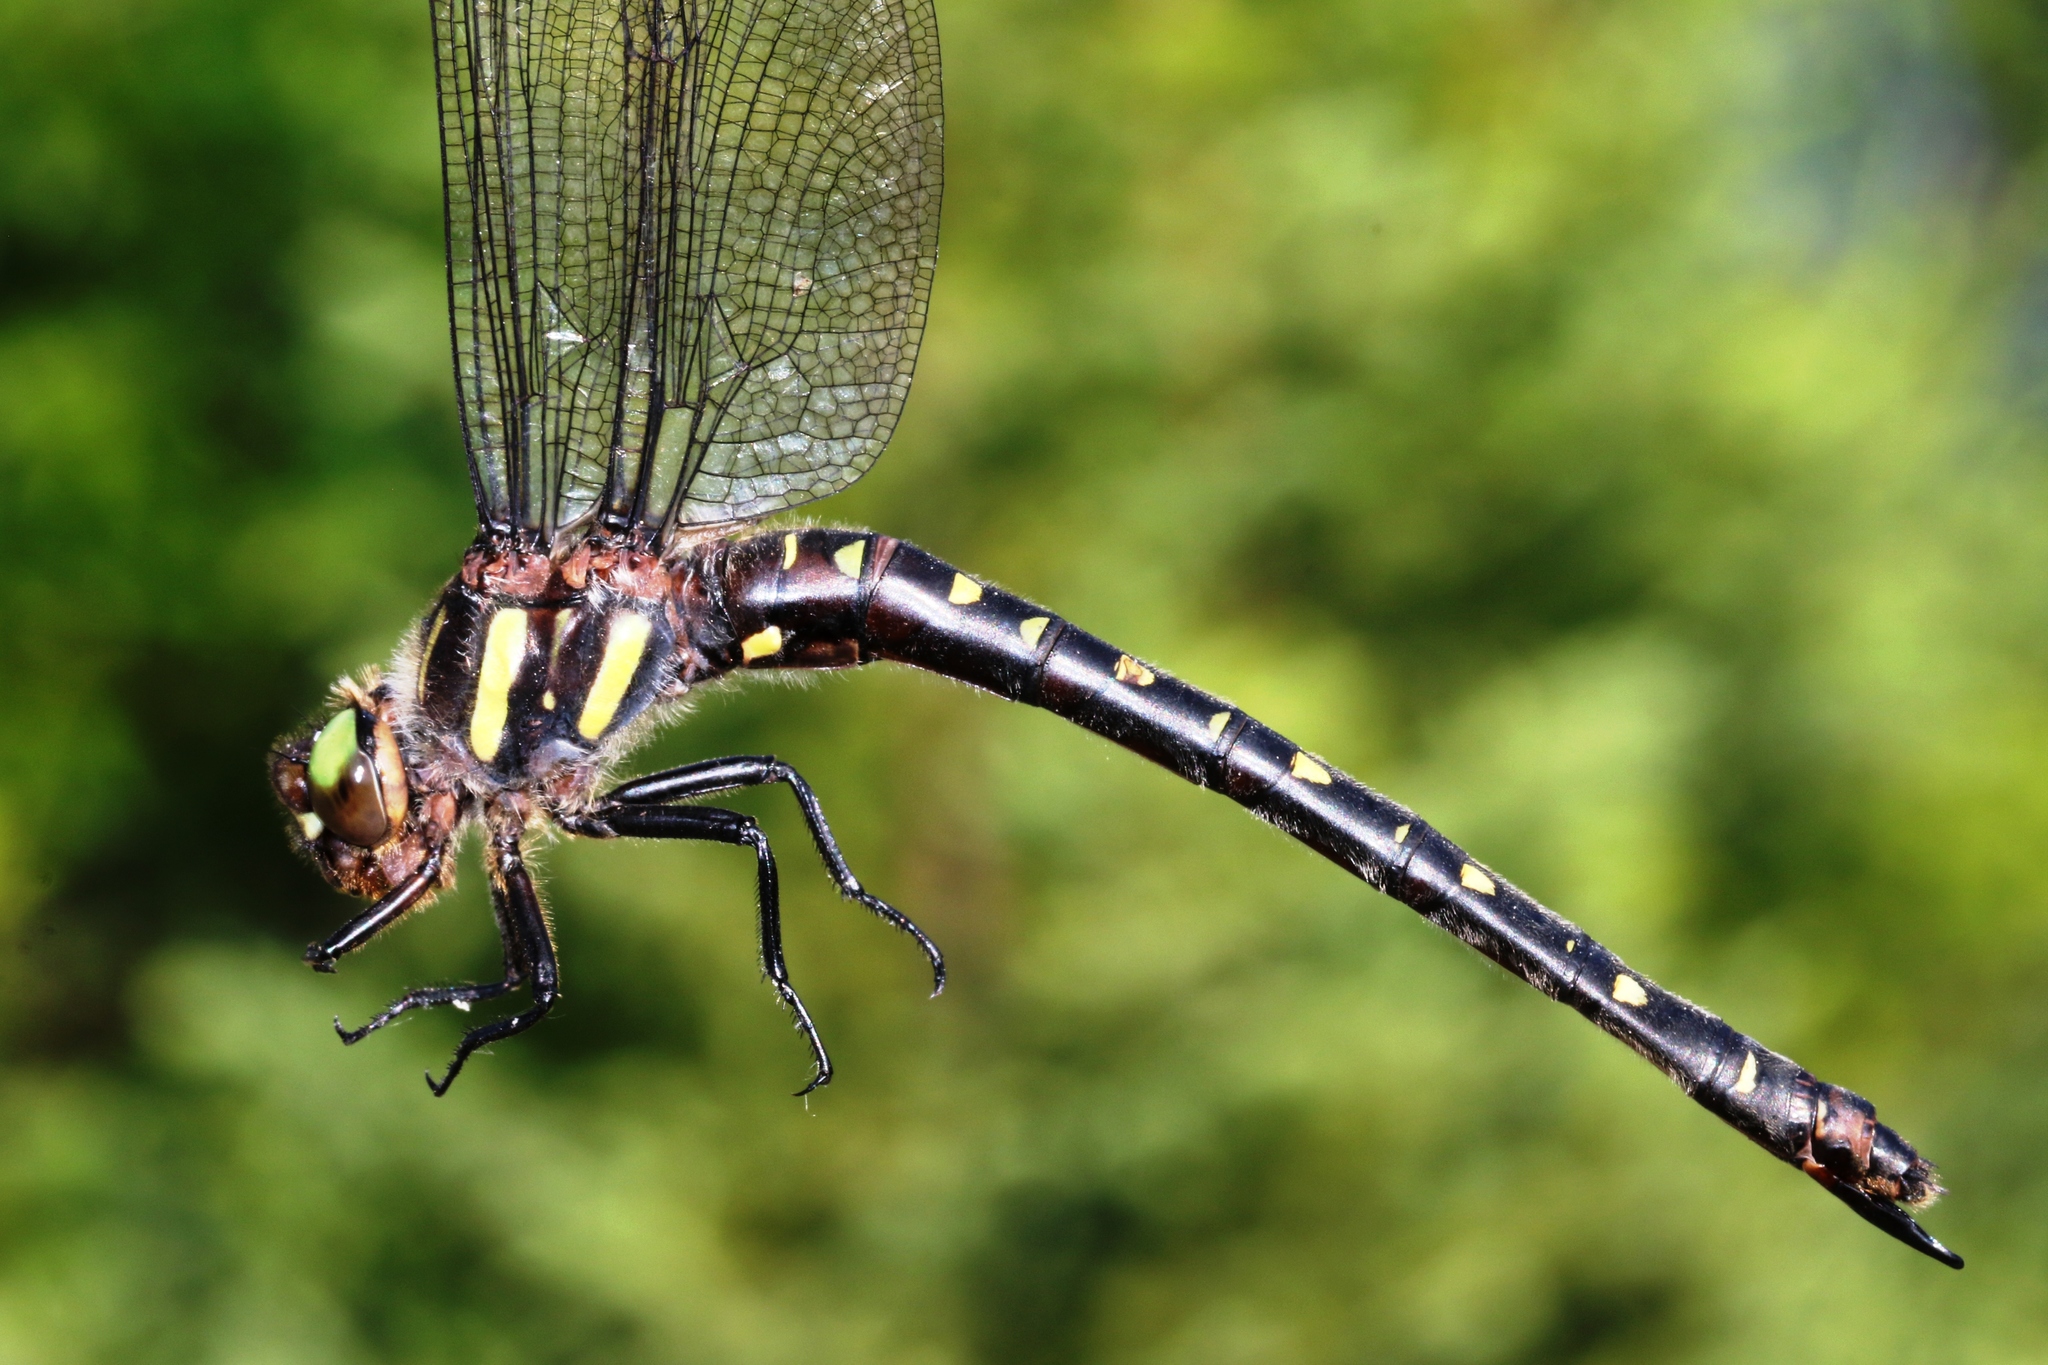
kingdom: Animalia
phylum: Arthropoda
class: Insecta
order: Odonata
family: Cordulegastridae
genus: Cordulegaster
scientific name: Cordulegaster maculata
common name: Twin-spotted spiketail
